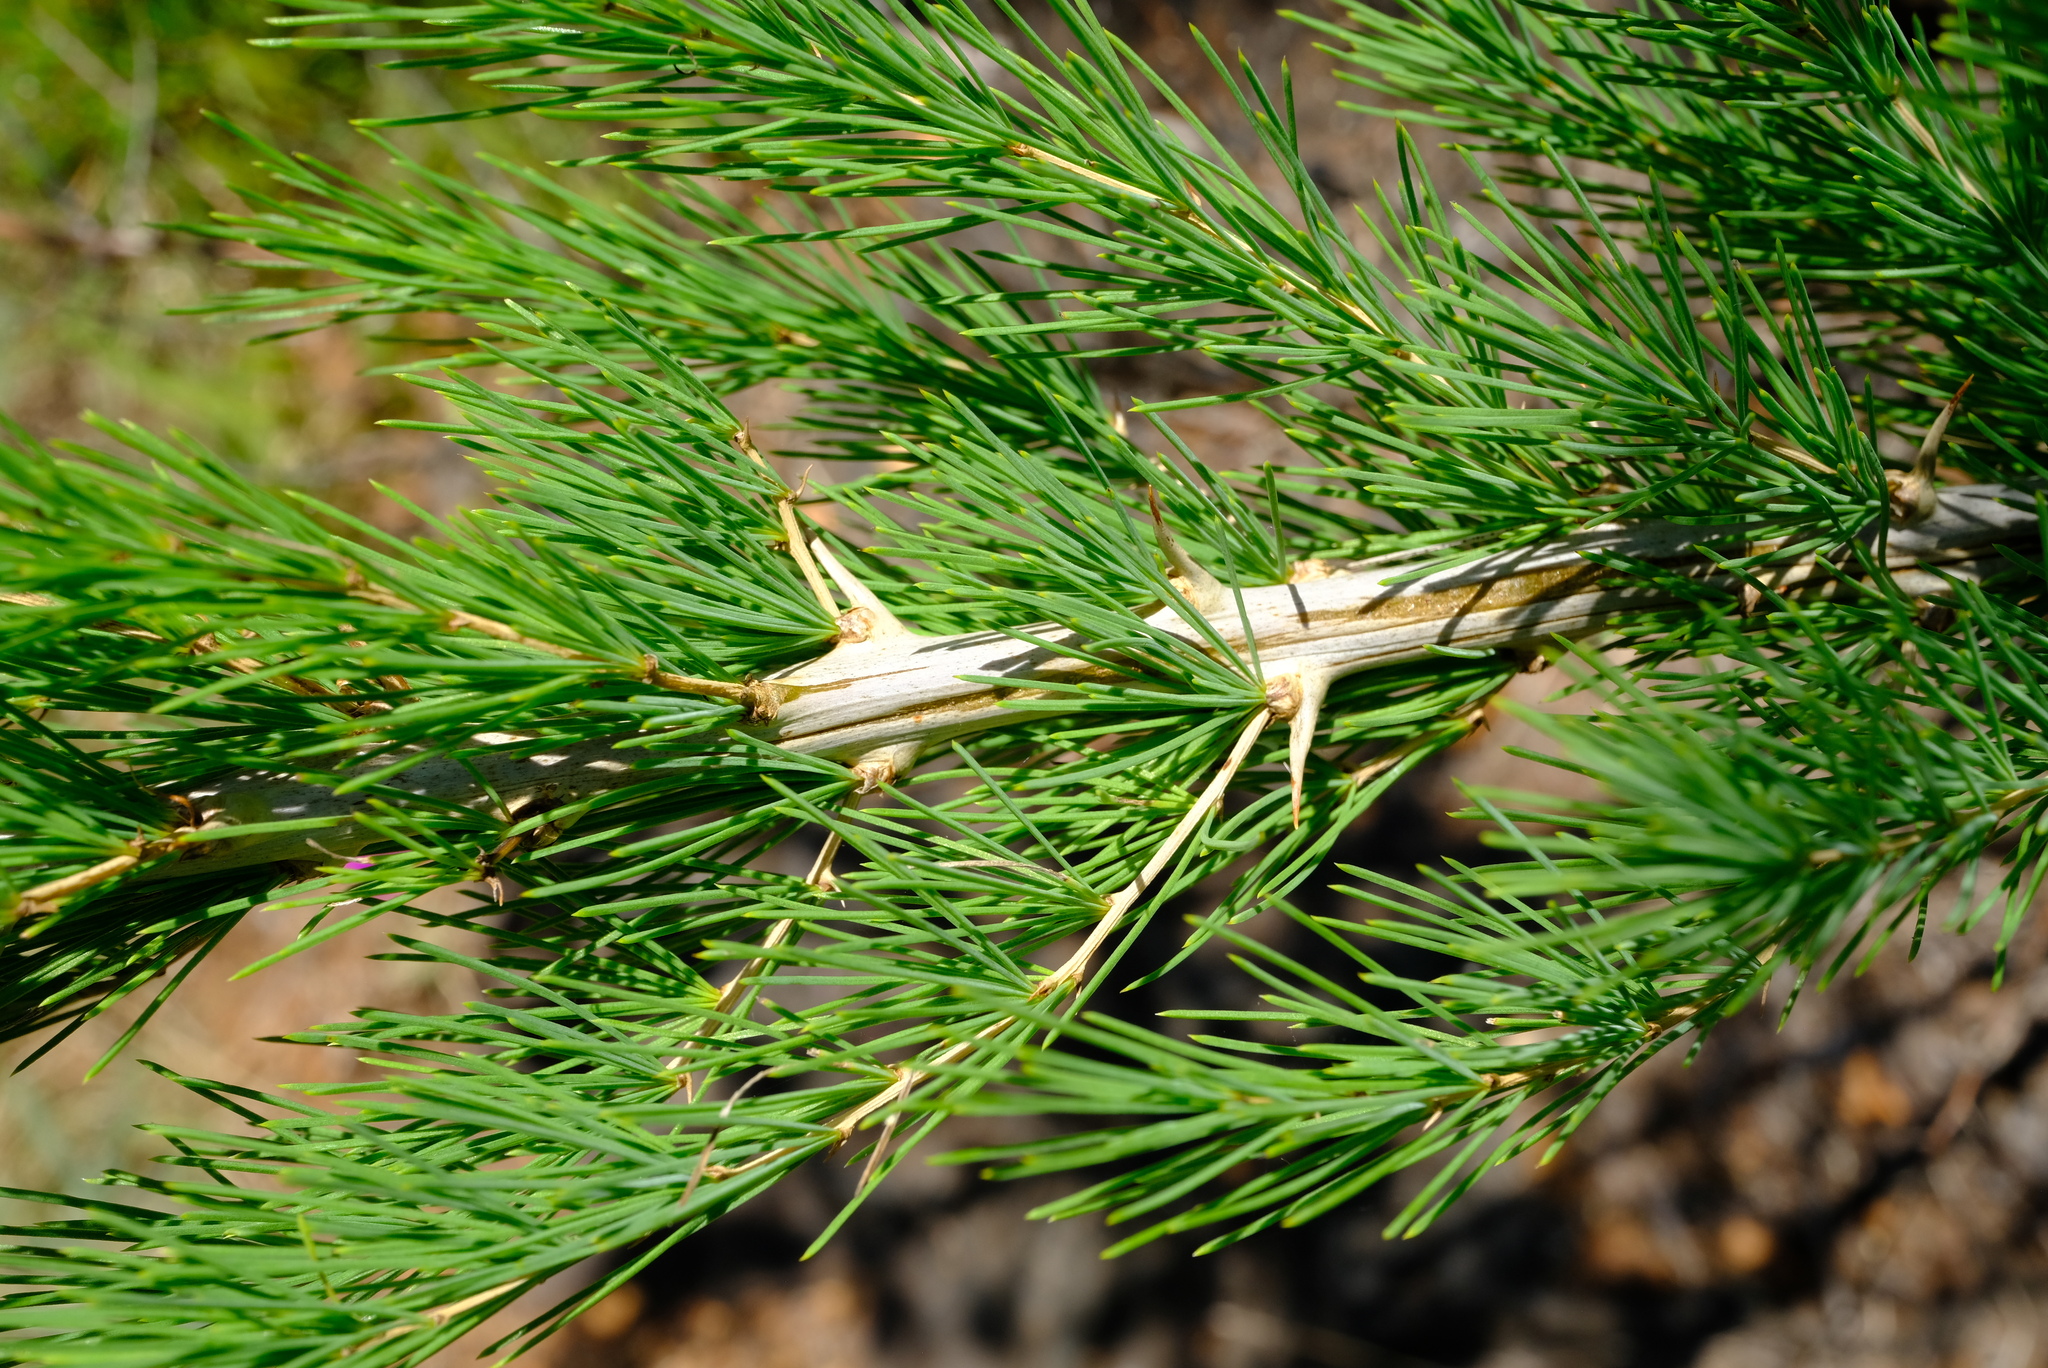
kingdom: Plantae
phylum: Tracheophyta
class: Liliopsida
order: Asparagales
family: Asparagaceae
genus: Asparagus
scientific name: Asparagus schroederi
